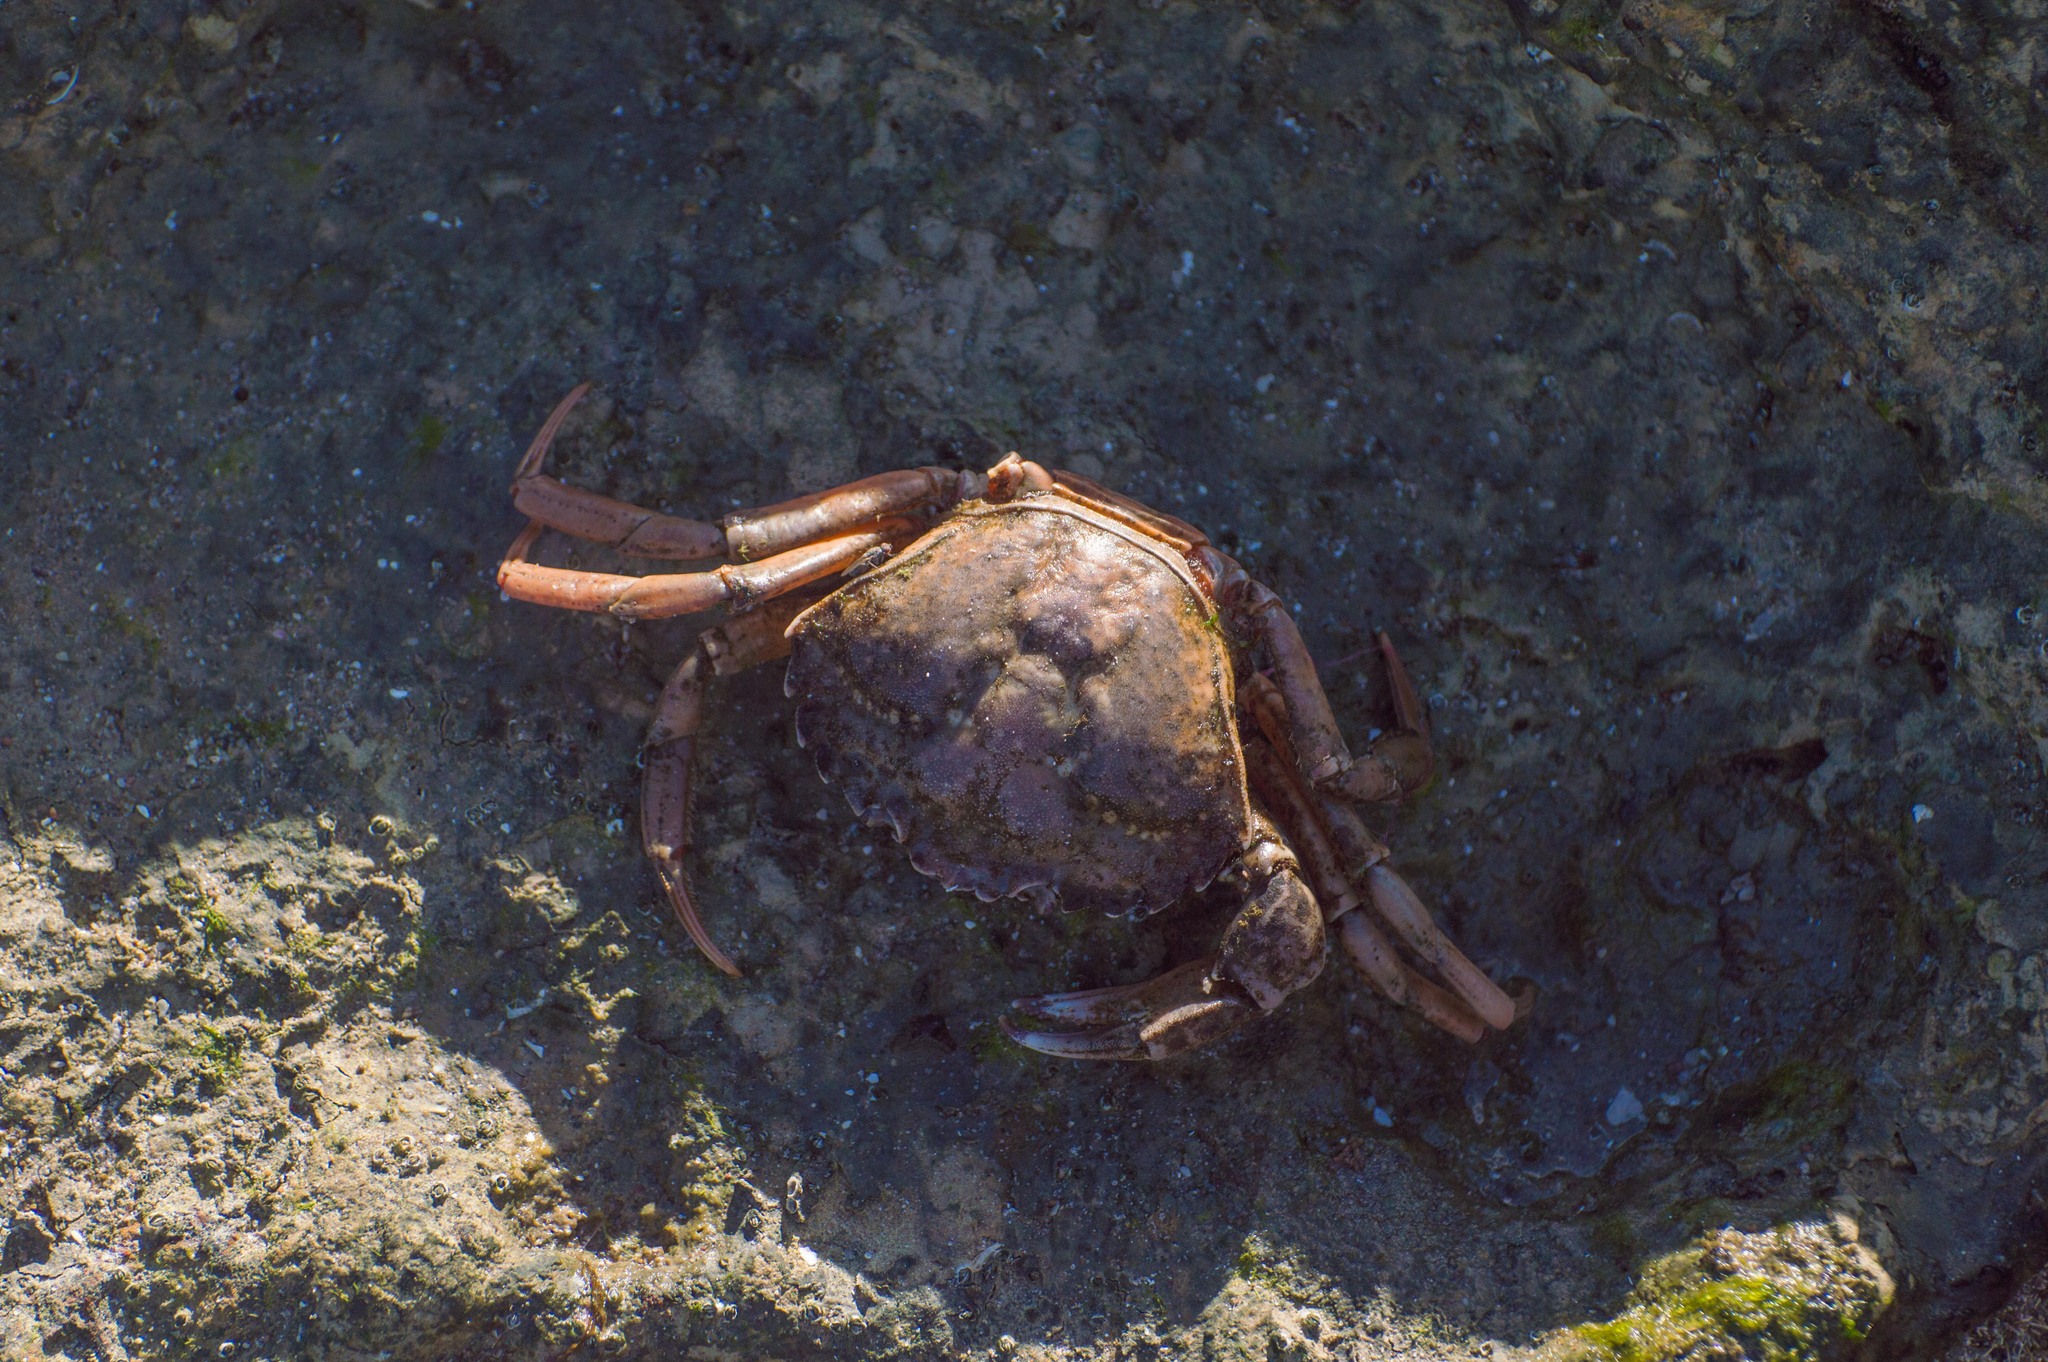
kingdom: Animalia
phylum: Arthropoda
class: Malacostraca
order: Decapoda
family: Carcinidae
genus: Carcinus
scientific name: Carcinus maenas
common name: European green crab
